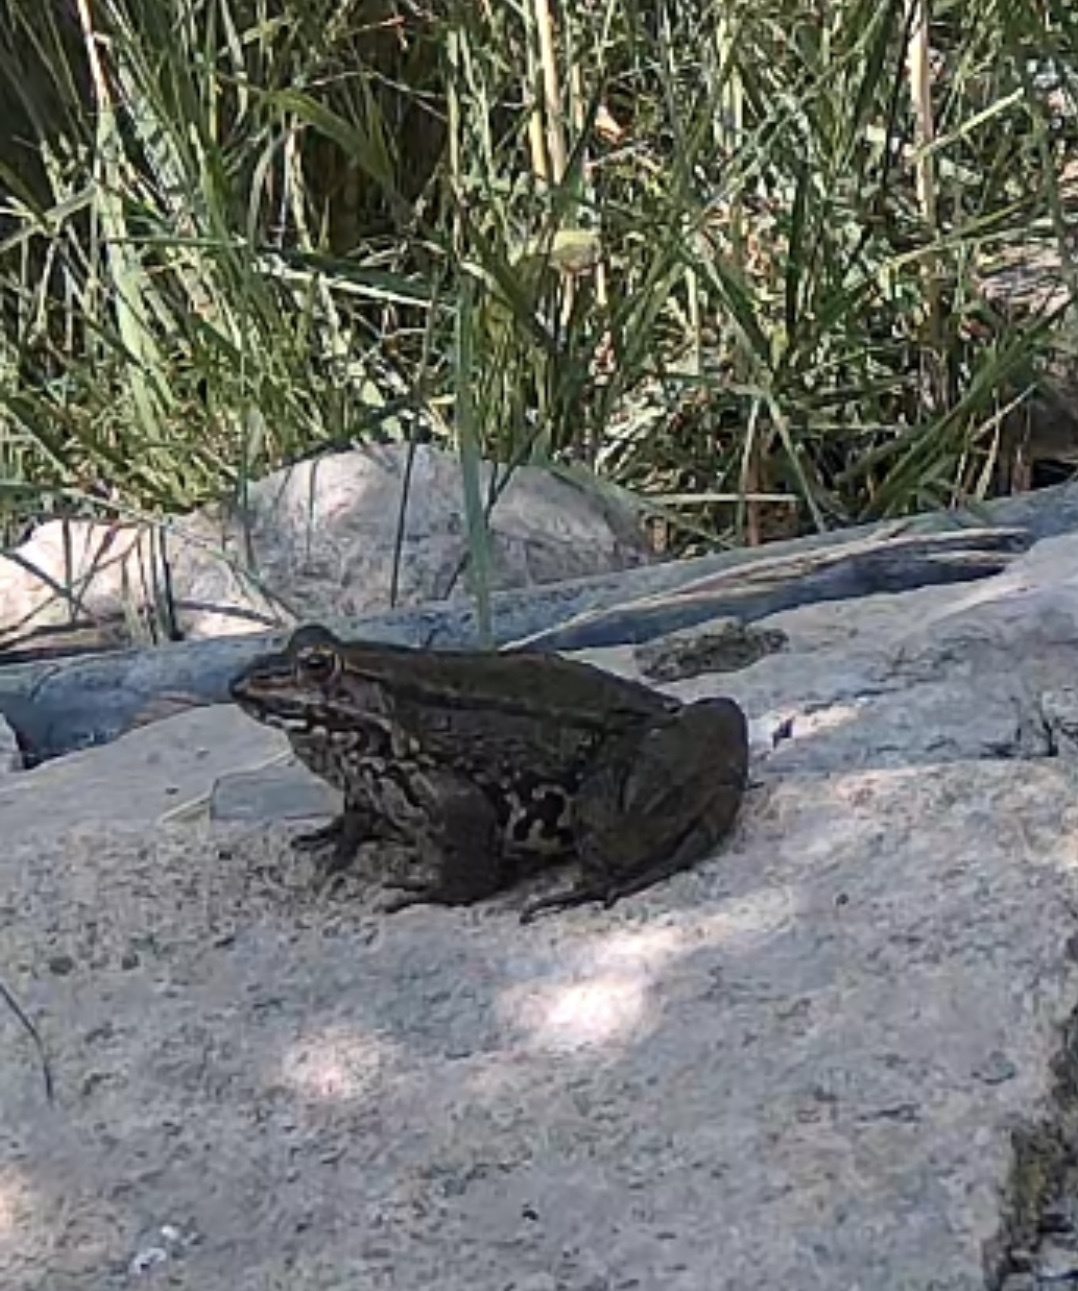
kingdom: Animalia
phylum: Chordata
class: Amphibia
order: Anura
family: Ranidae
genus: Pelophylax
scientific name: Pelophylax perezi
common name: Perez's frog
